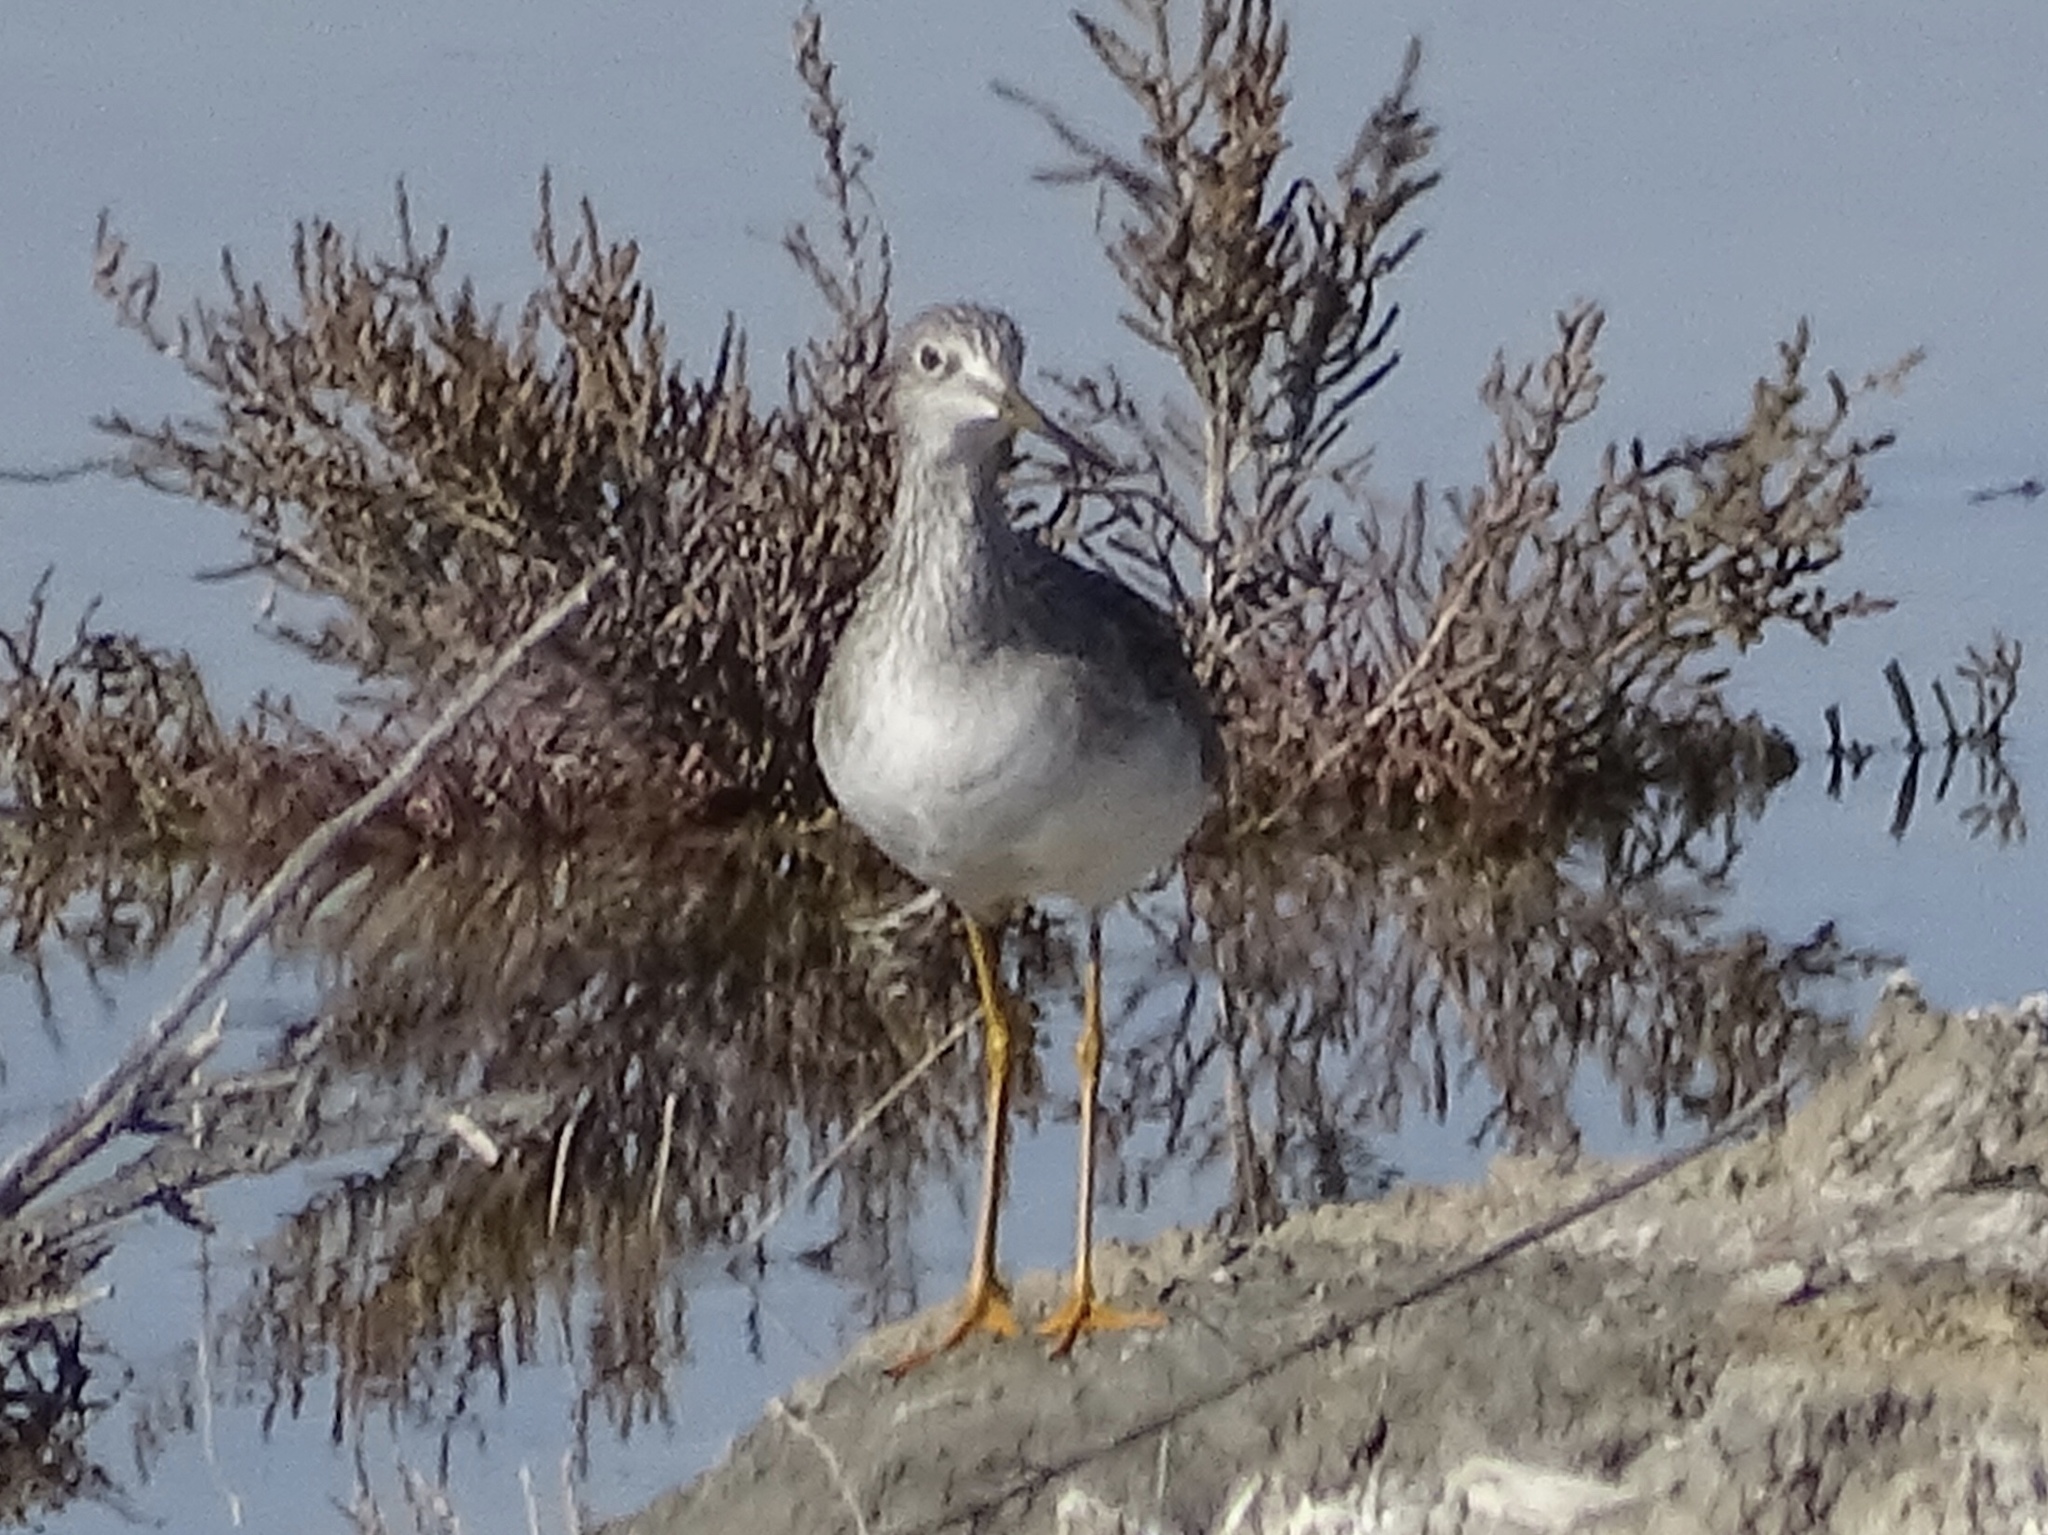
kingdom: Animalia
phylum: Chordata
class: Aves
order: Charadriiformes
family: Scolopacidae
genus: Tringa
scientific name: Tringa melanoleuca
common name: Greater yellowlegs
